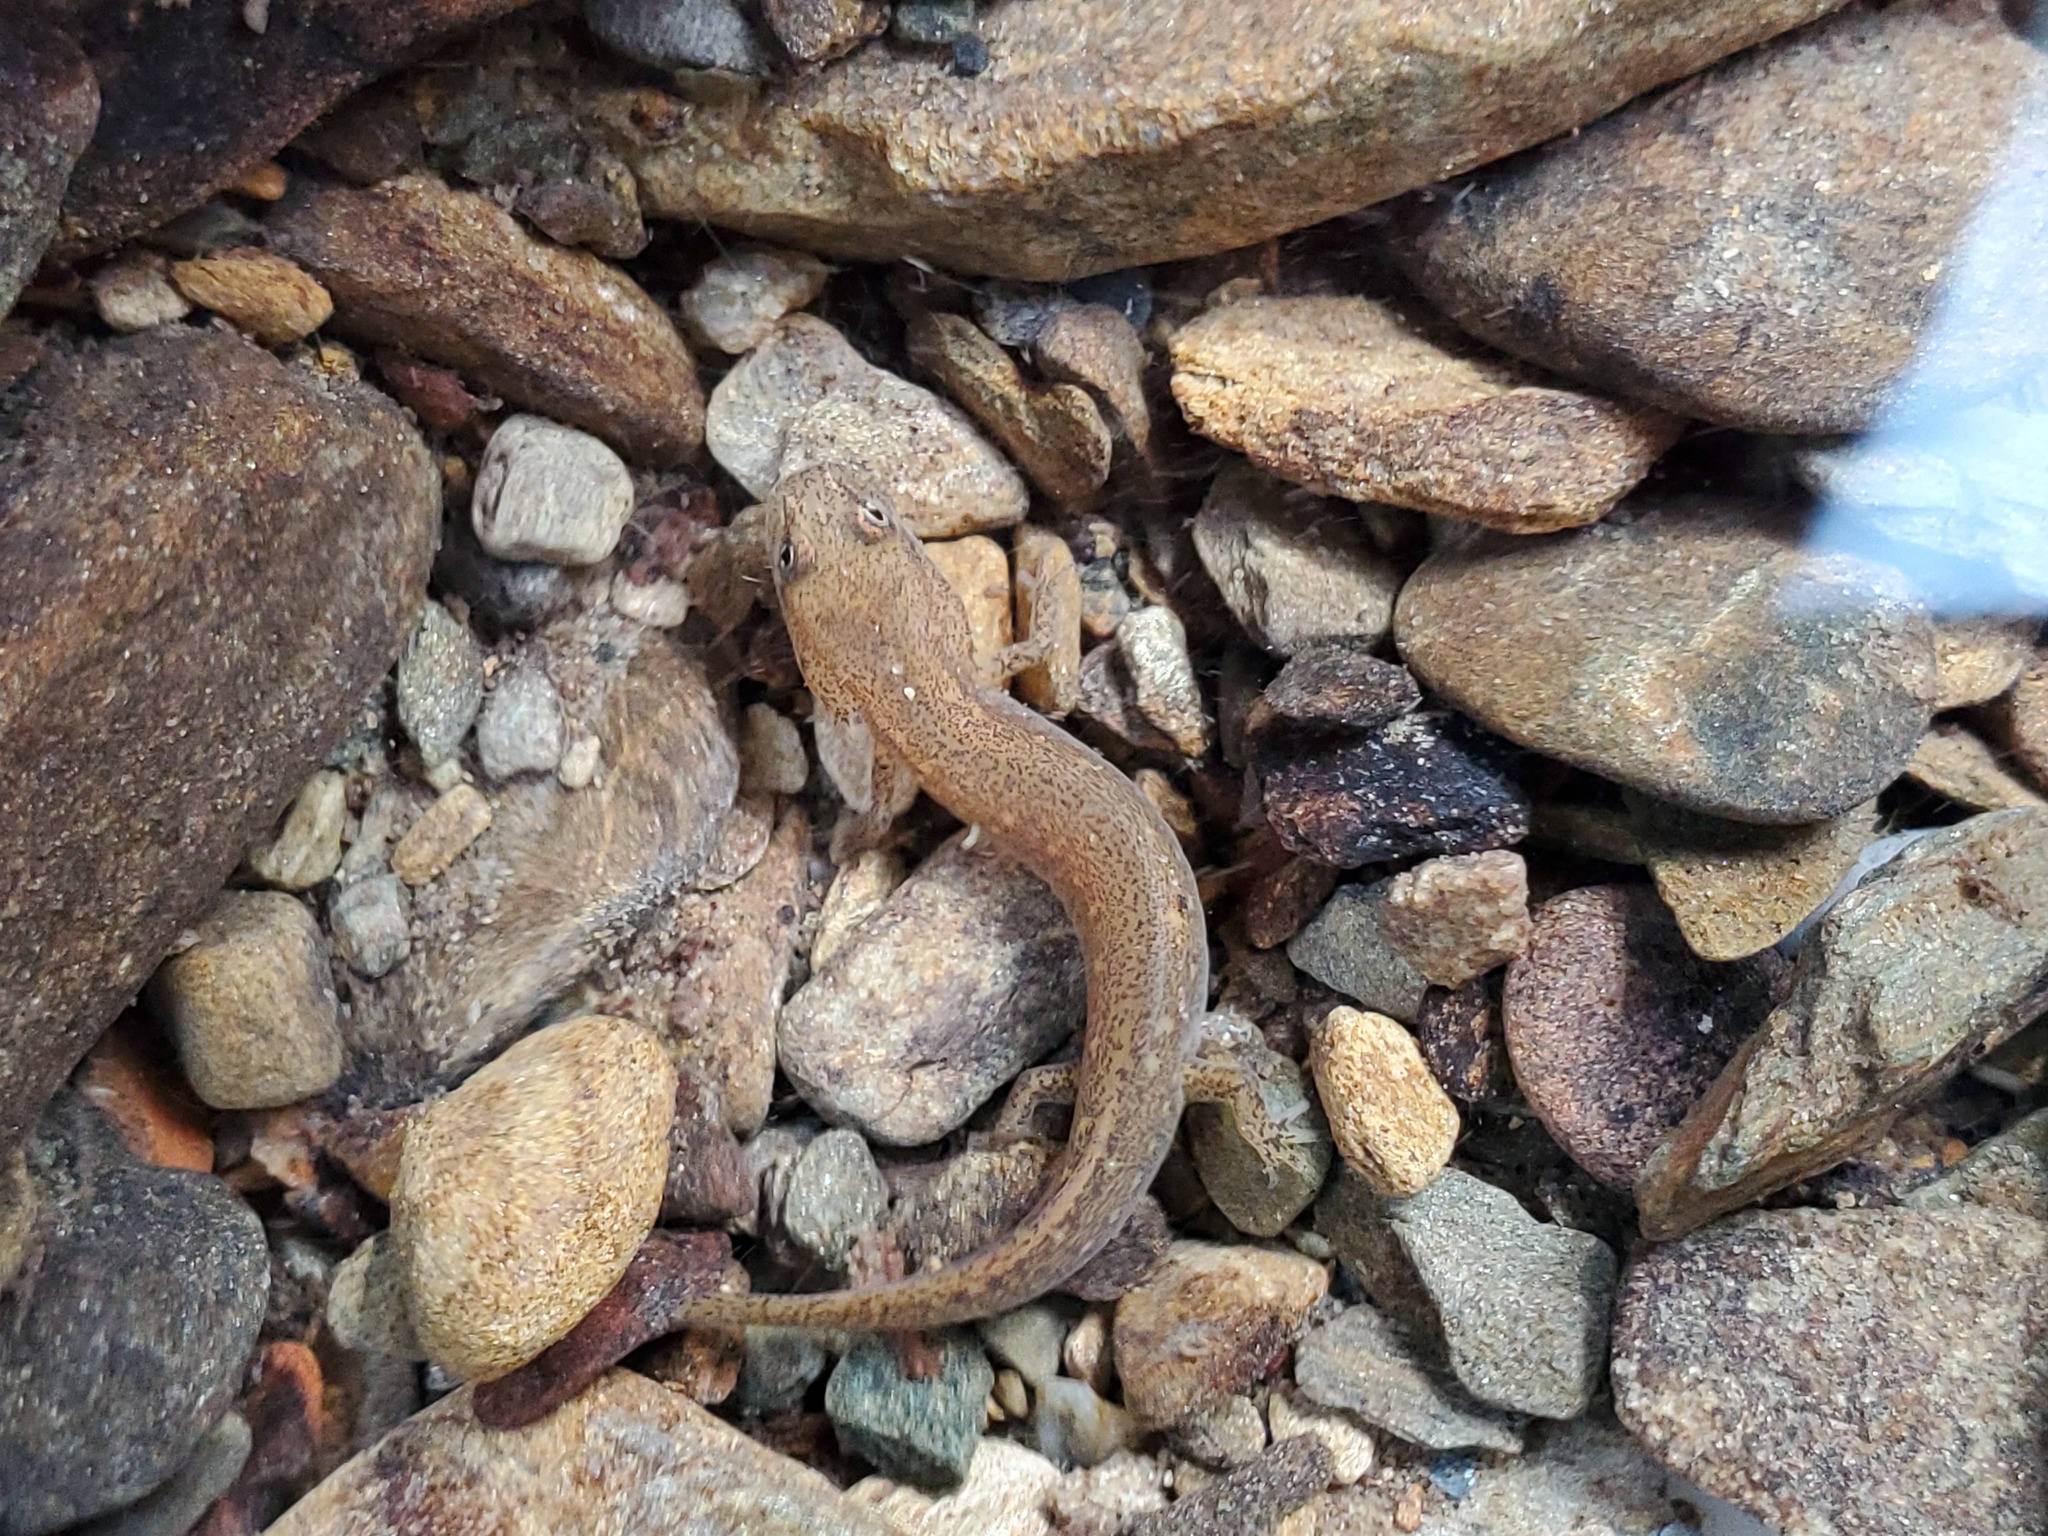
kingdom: Animalia
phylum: Chordata
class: Amphibia
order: Caudata
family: Plethodontidae
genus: Eurycea
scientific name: Eurycea
